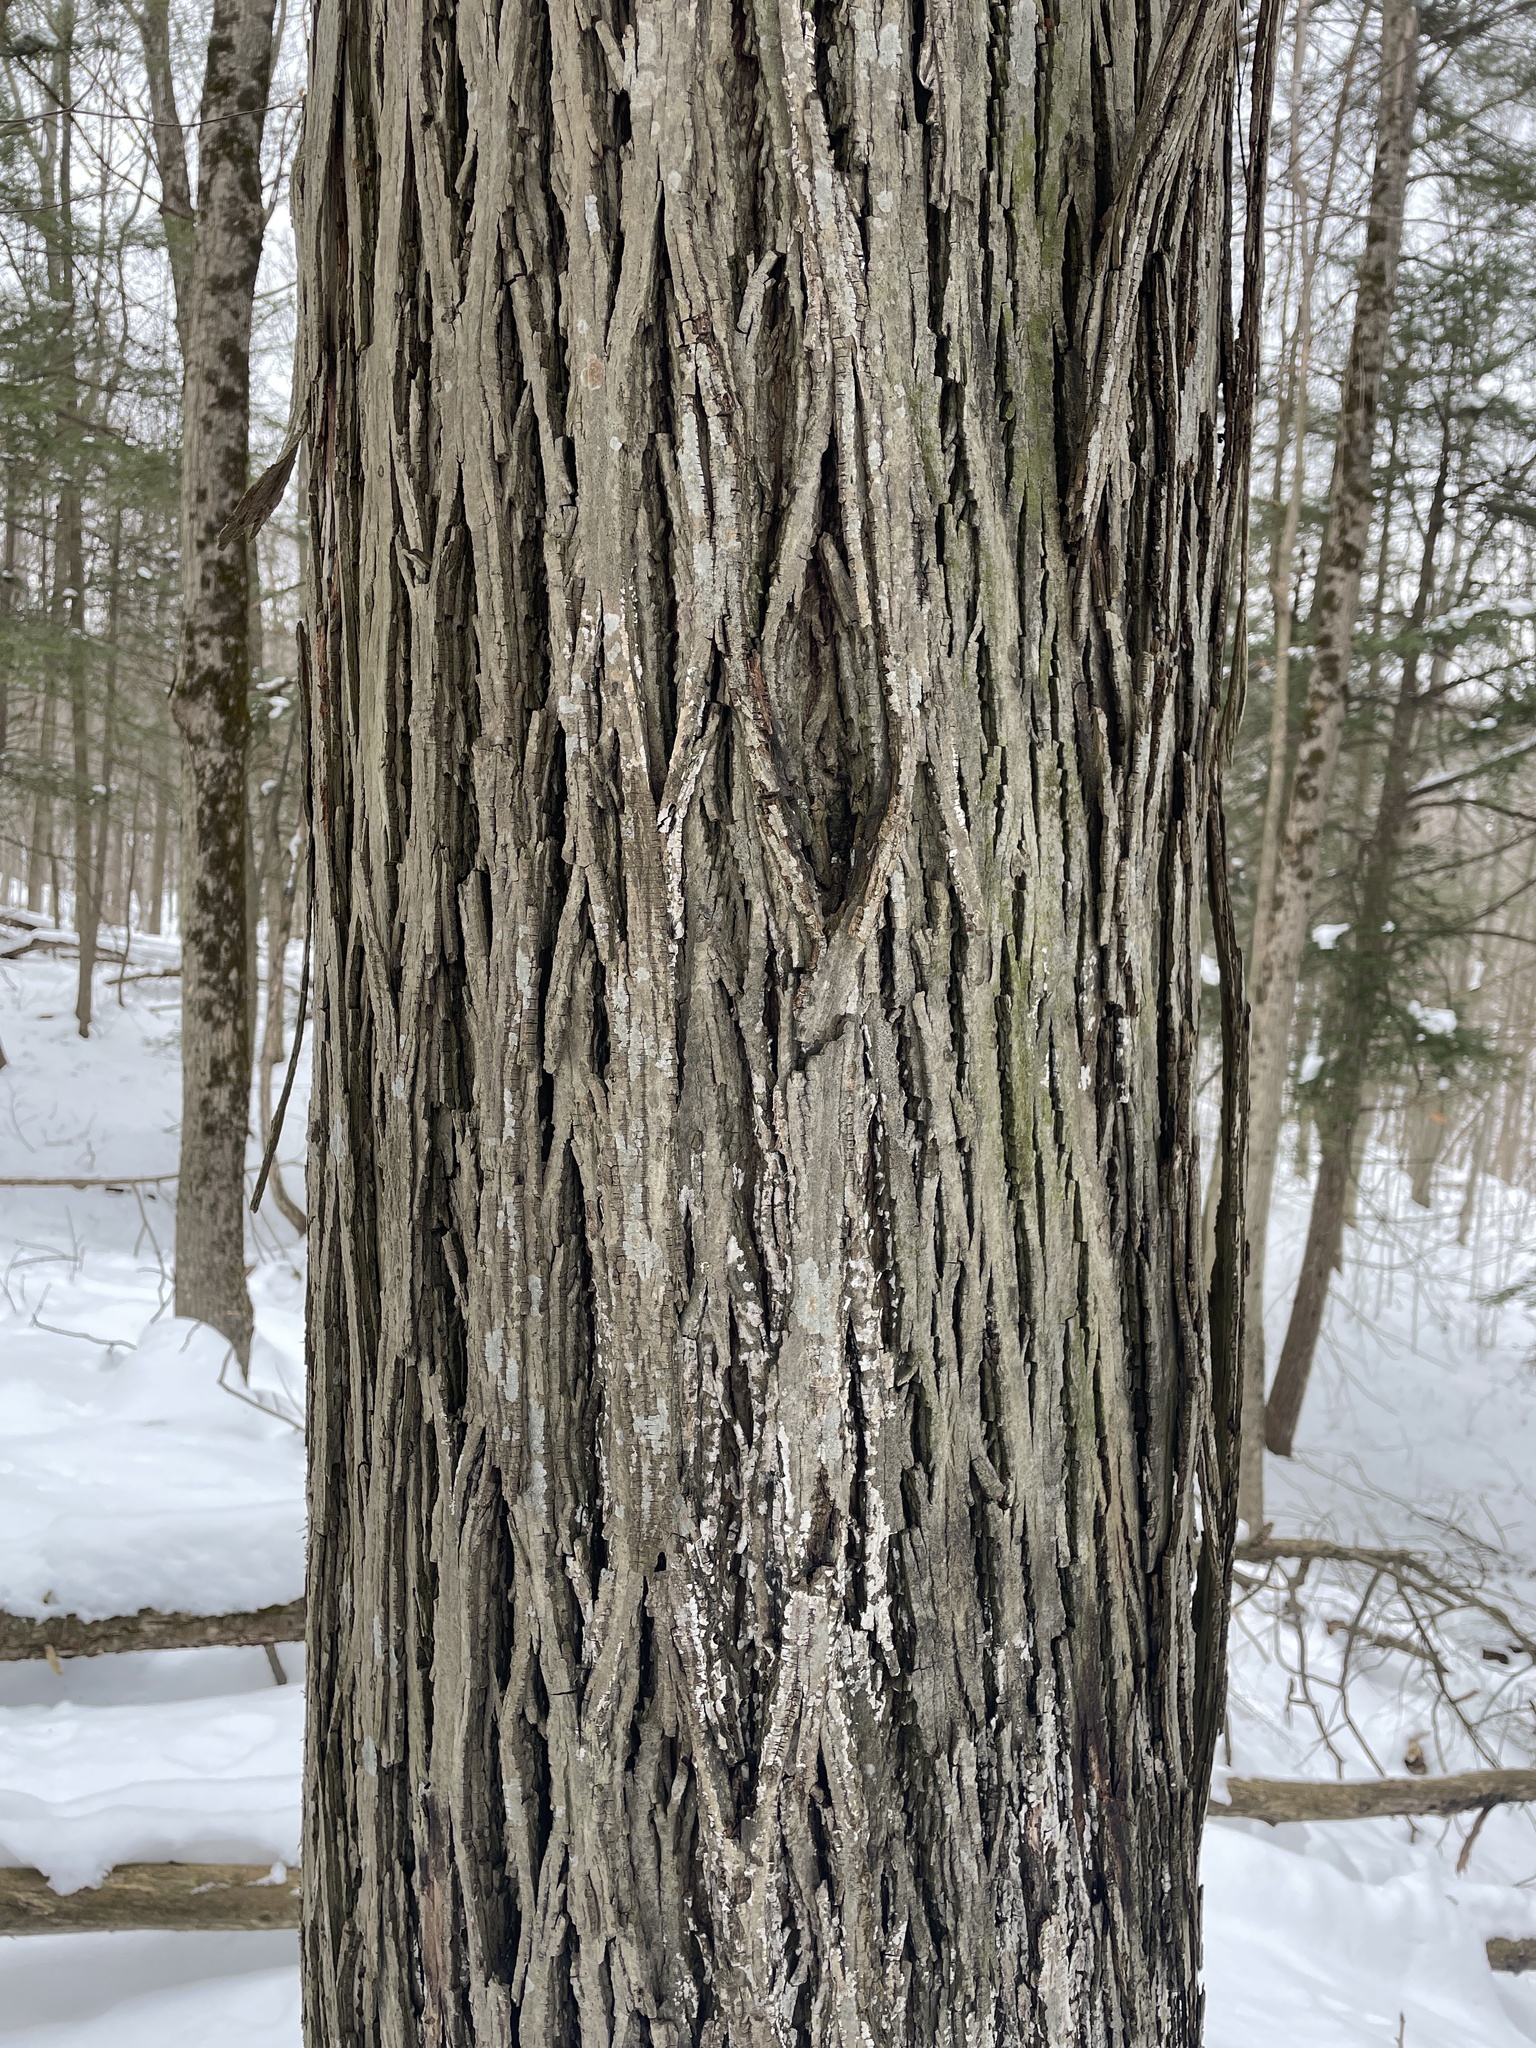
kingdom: Plantae
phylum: Tracheophyta
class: Magnoliopsida
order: Fagales
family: Juglandaceae
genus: Carya
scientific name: Carya ovata
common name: Shagbark hickory
